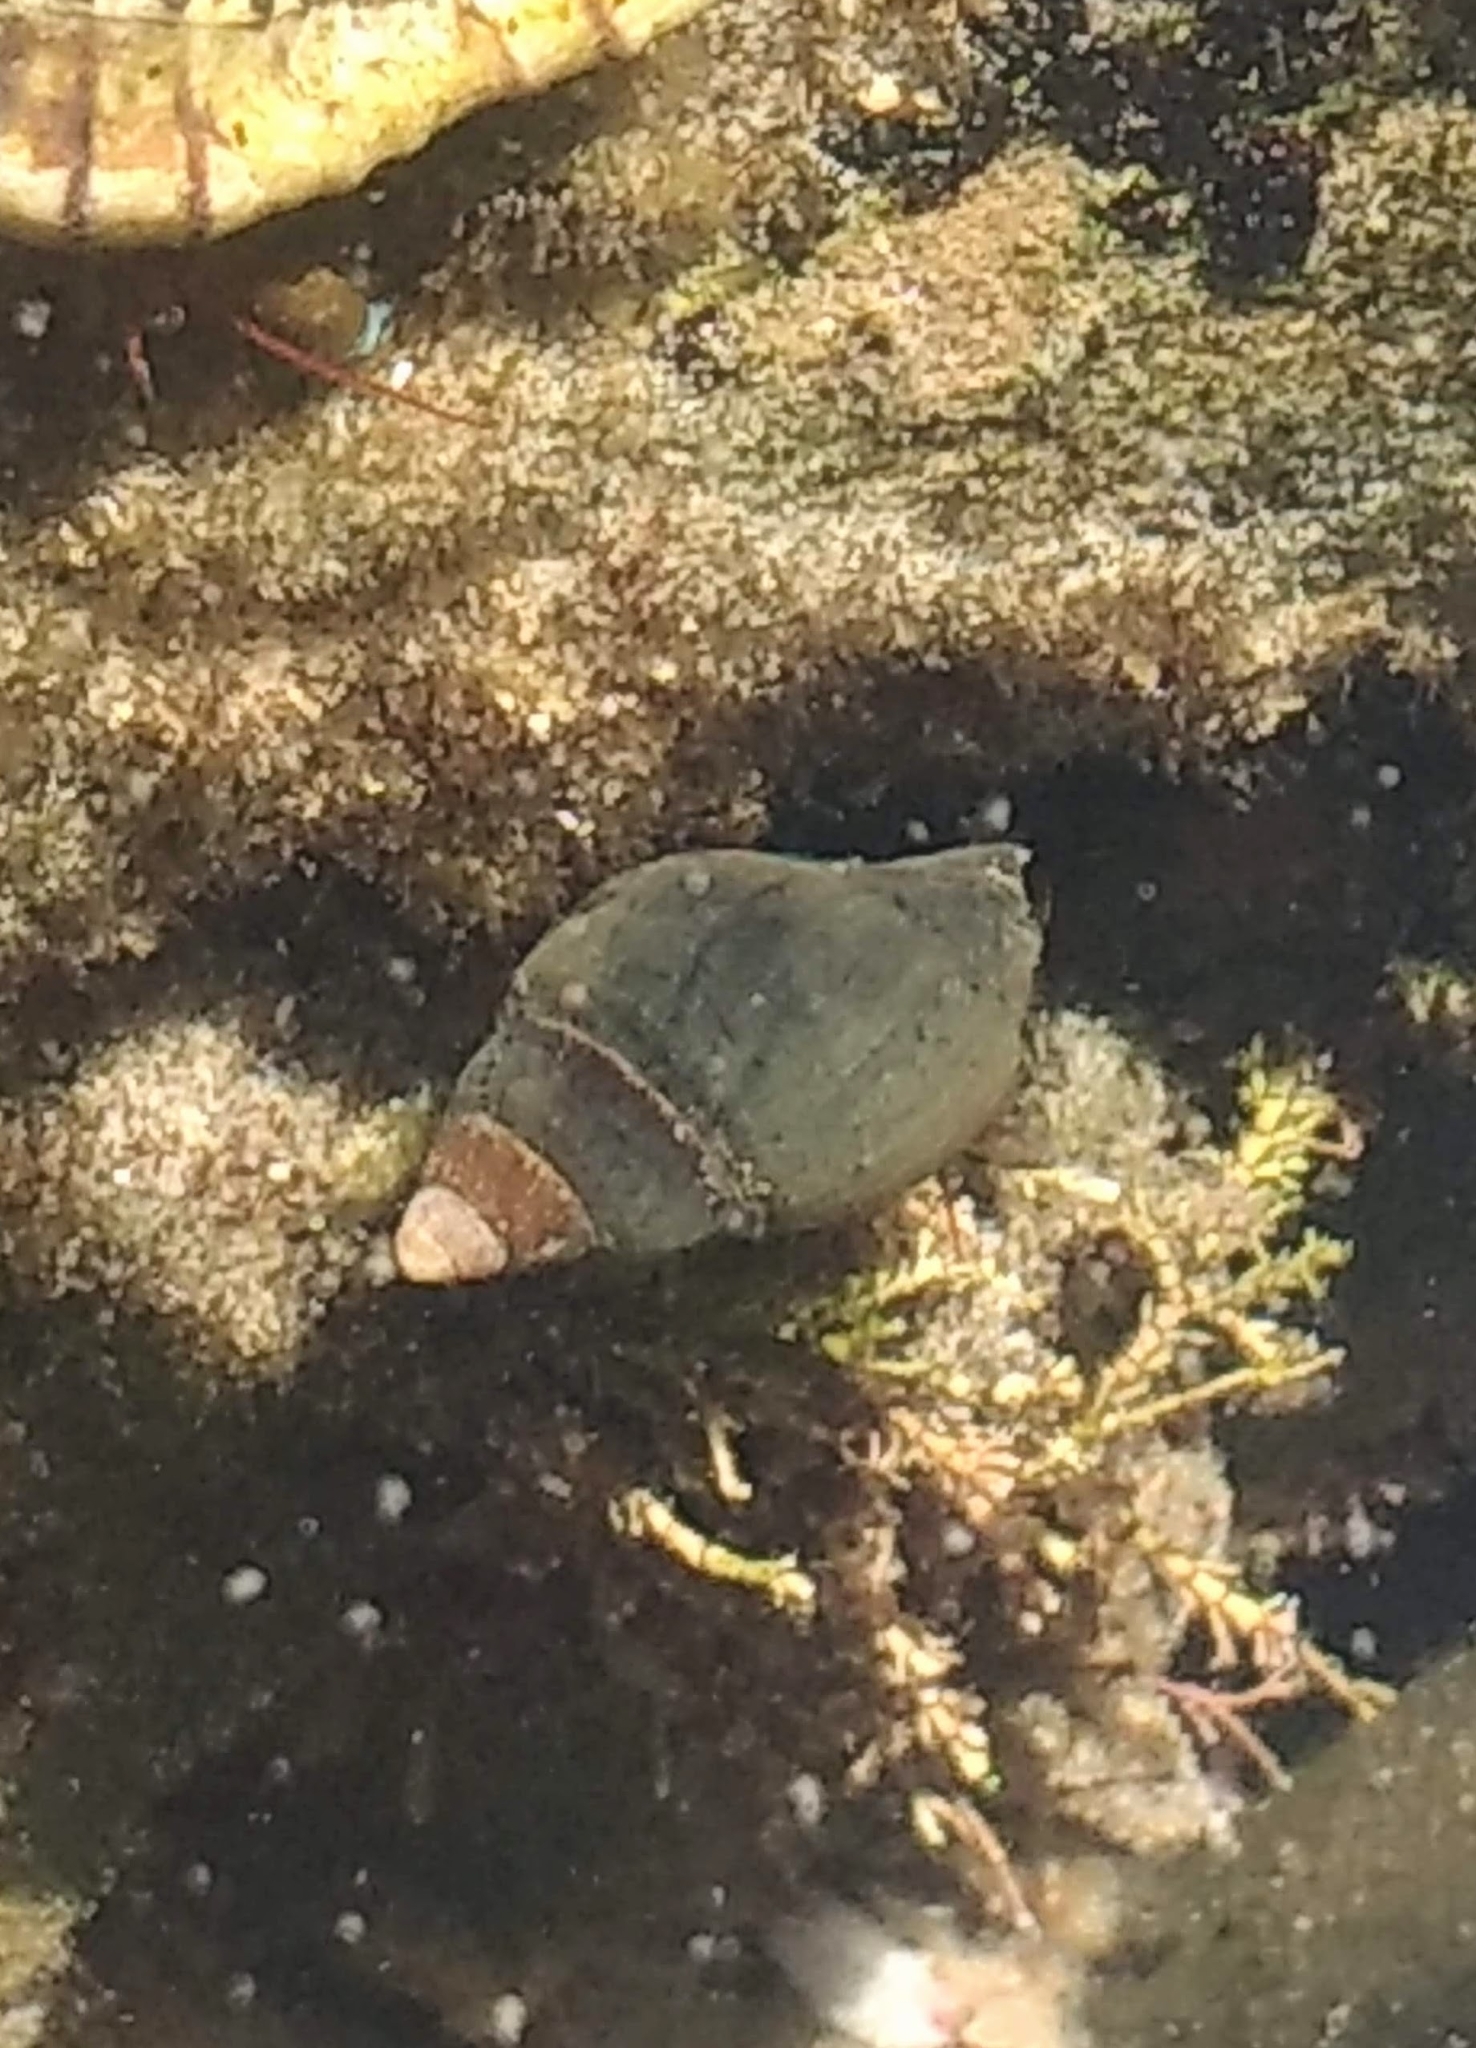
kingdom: Animalia
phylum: Mollusca
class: Gastropoda
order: Neogastropoda
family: Pseudolividae
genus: Macron
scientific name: Macron lividus
